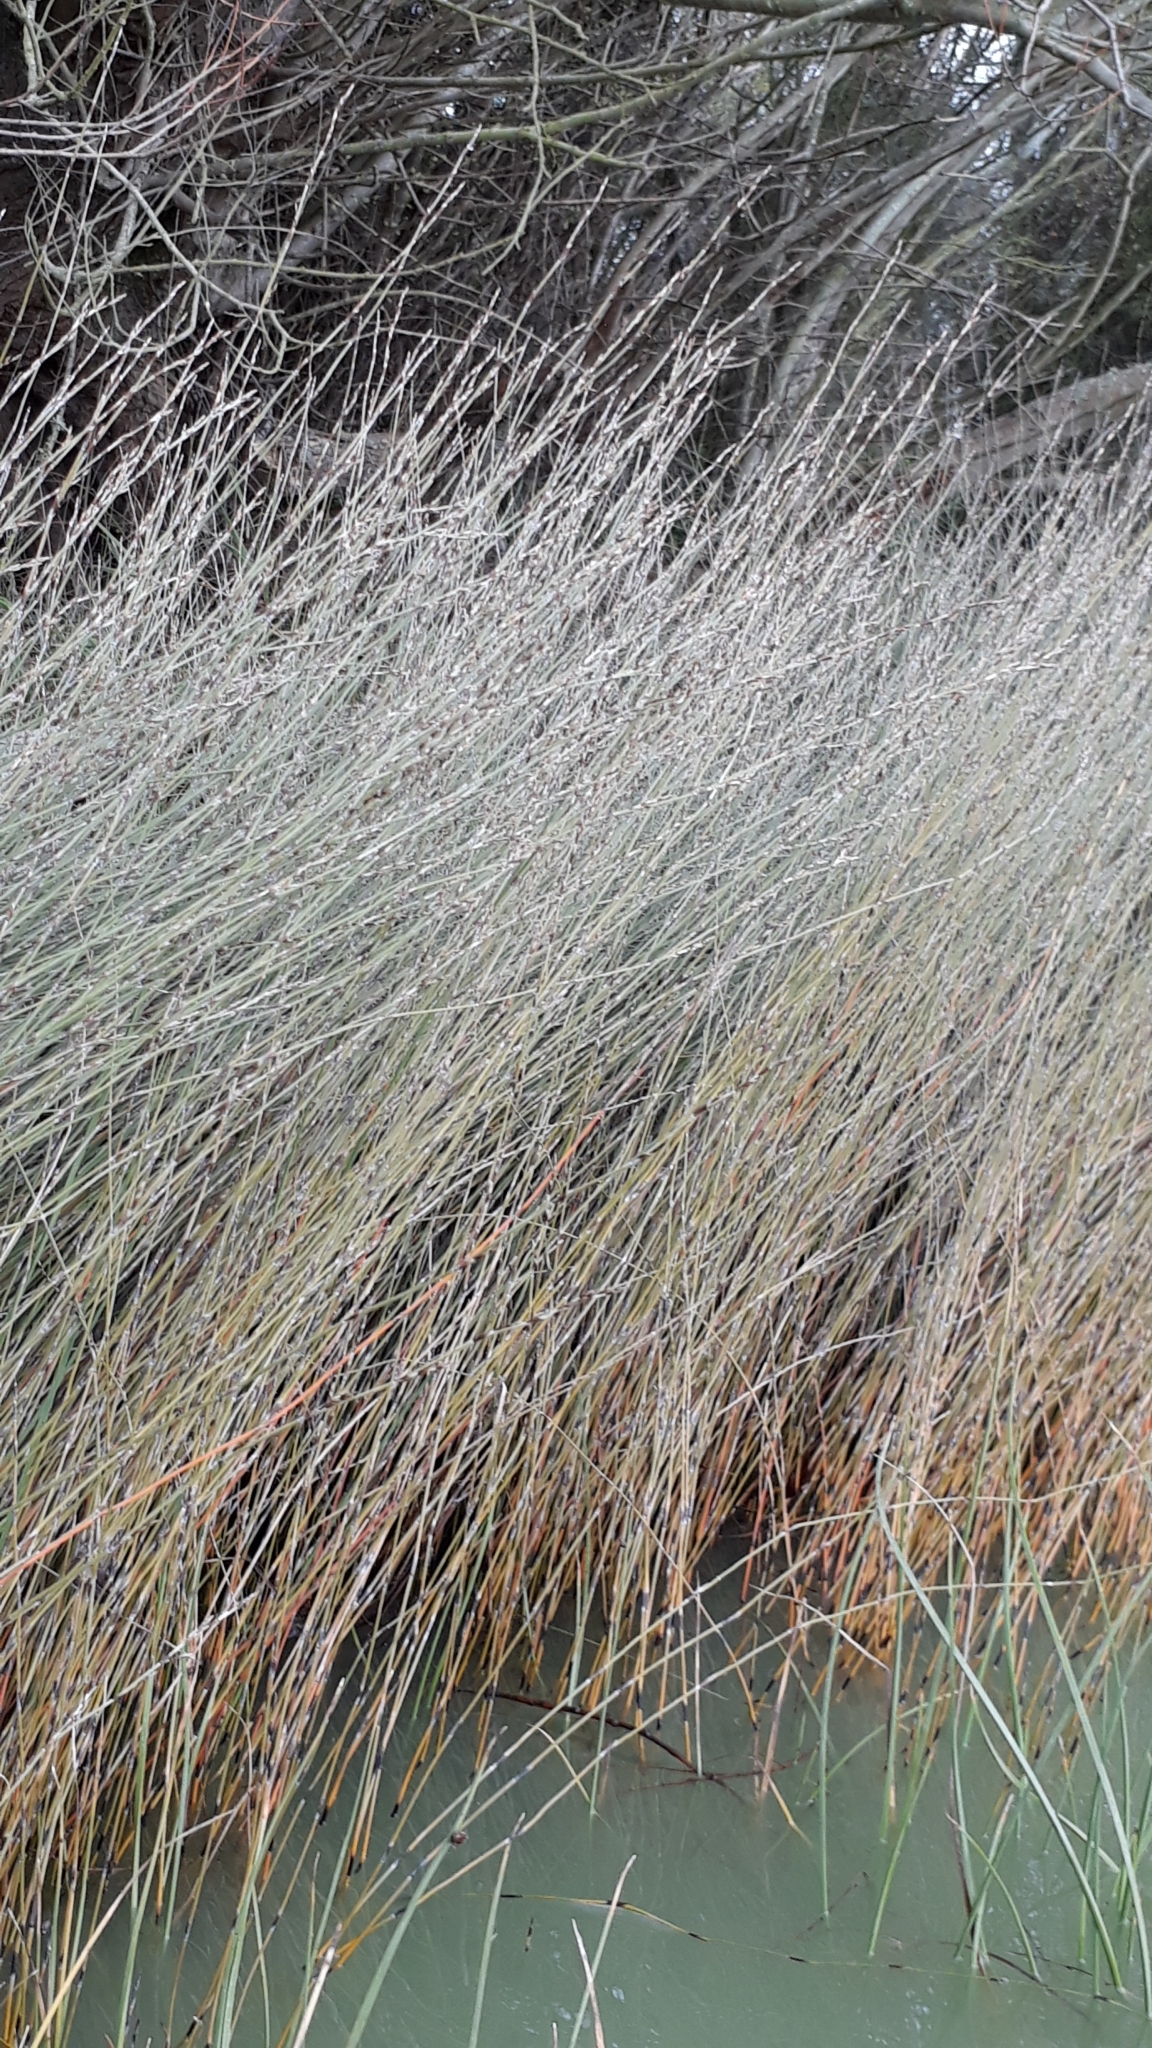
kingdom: Plantae
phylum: Tracheophyta
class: Liliopsida
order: Poales
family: Restionaceae
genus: Apodasmia
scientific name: Apodasmia similis
